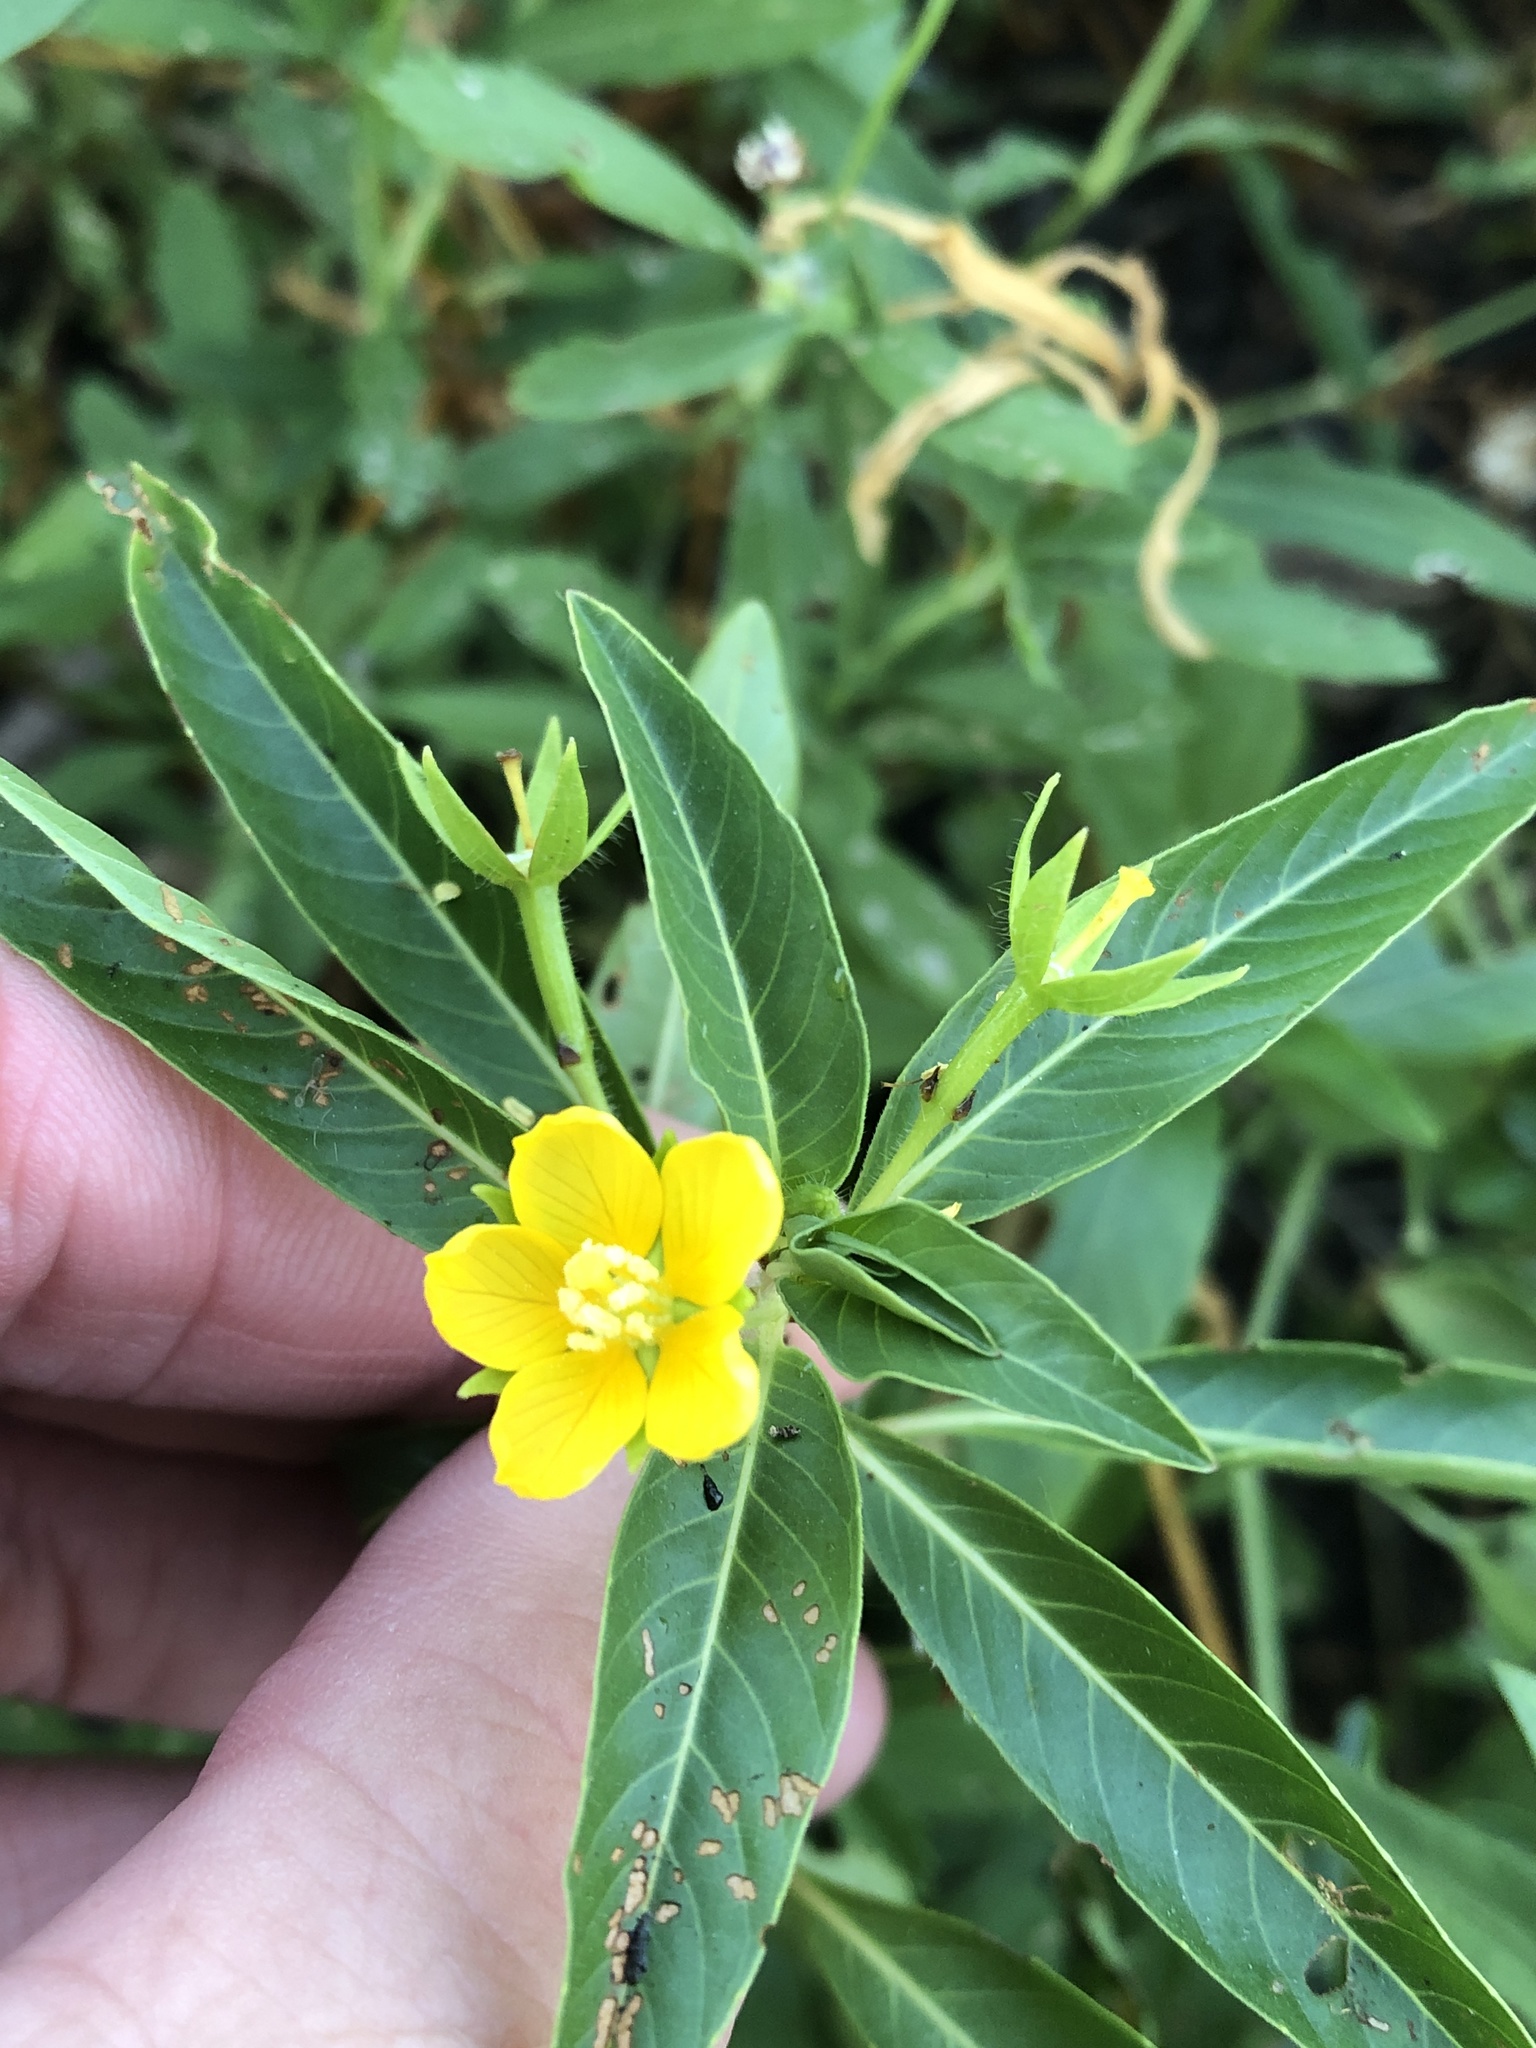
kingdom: Plantae
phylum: Tracheophyta
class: Magnoliopsida
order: Myrtales
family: Onagraceae
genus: Ludwigia
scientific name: Ludwigia peploides
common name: Floating primrose-willow
